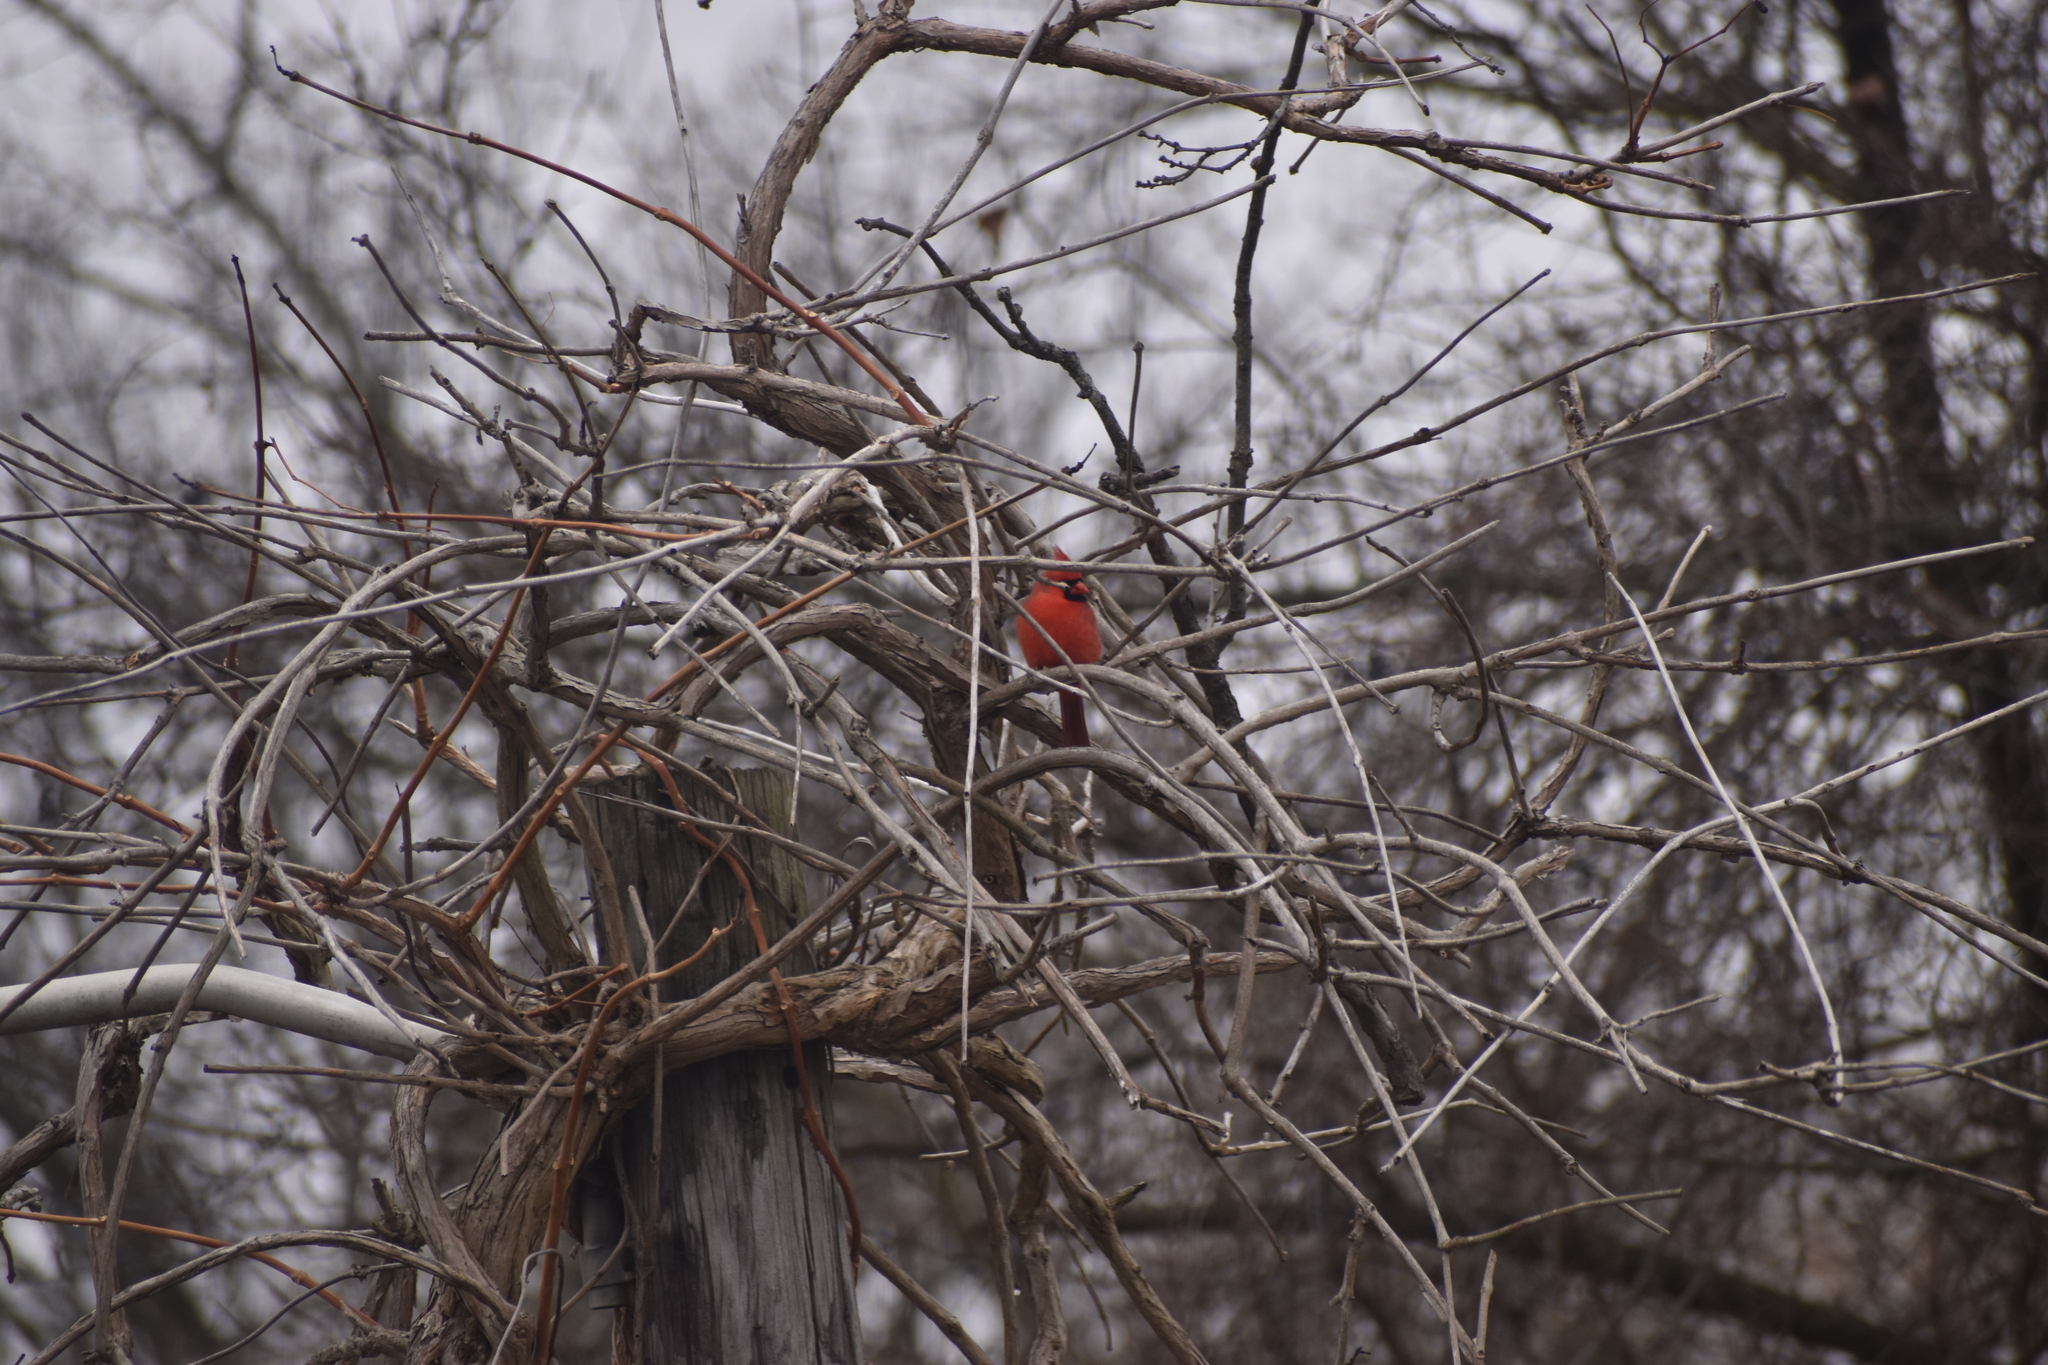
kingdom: Animalia
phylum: Chordata
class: Aves
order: Passeriformes
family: Cardinalidae
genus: Cardinalis
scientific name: Cardinalis cardinalis
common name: Northern cardinal
